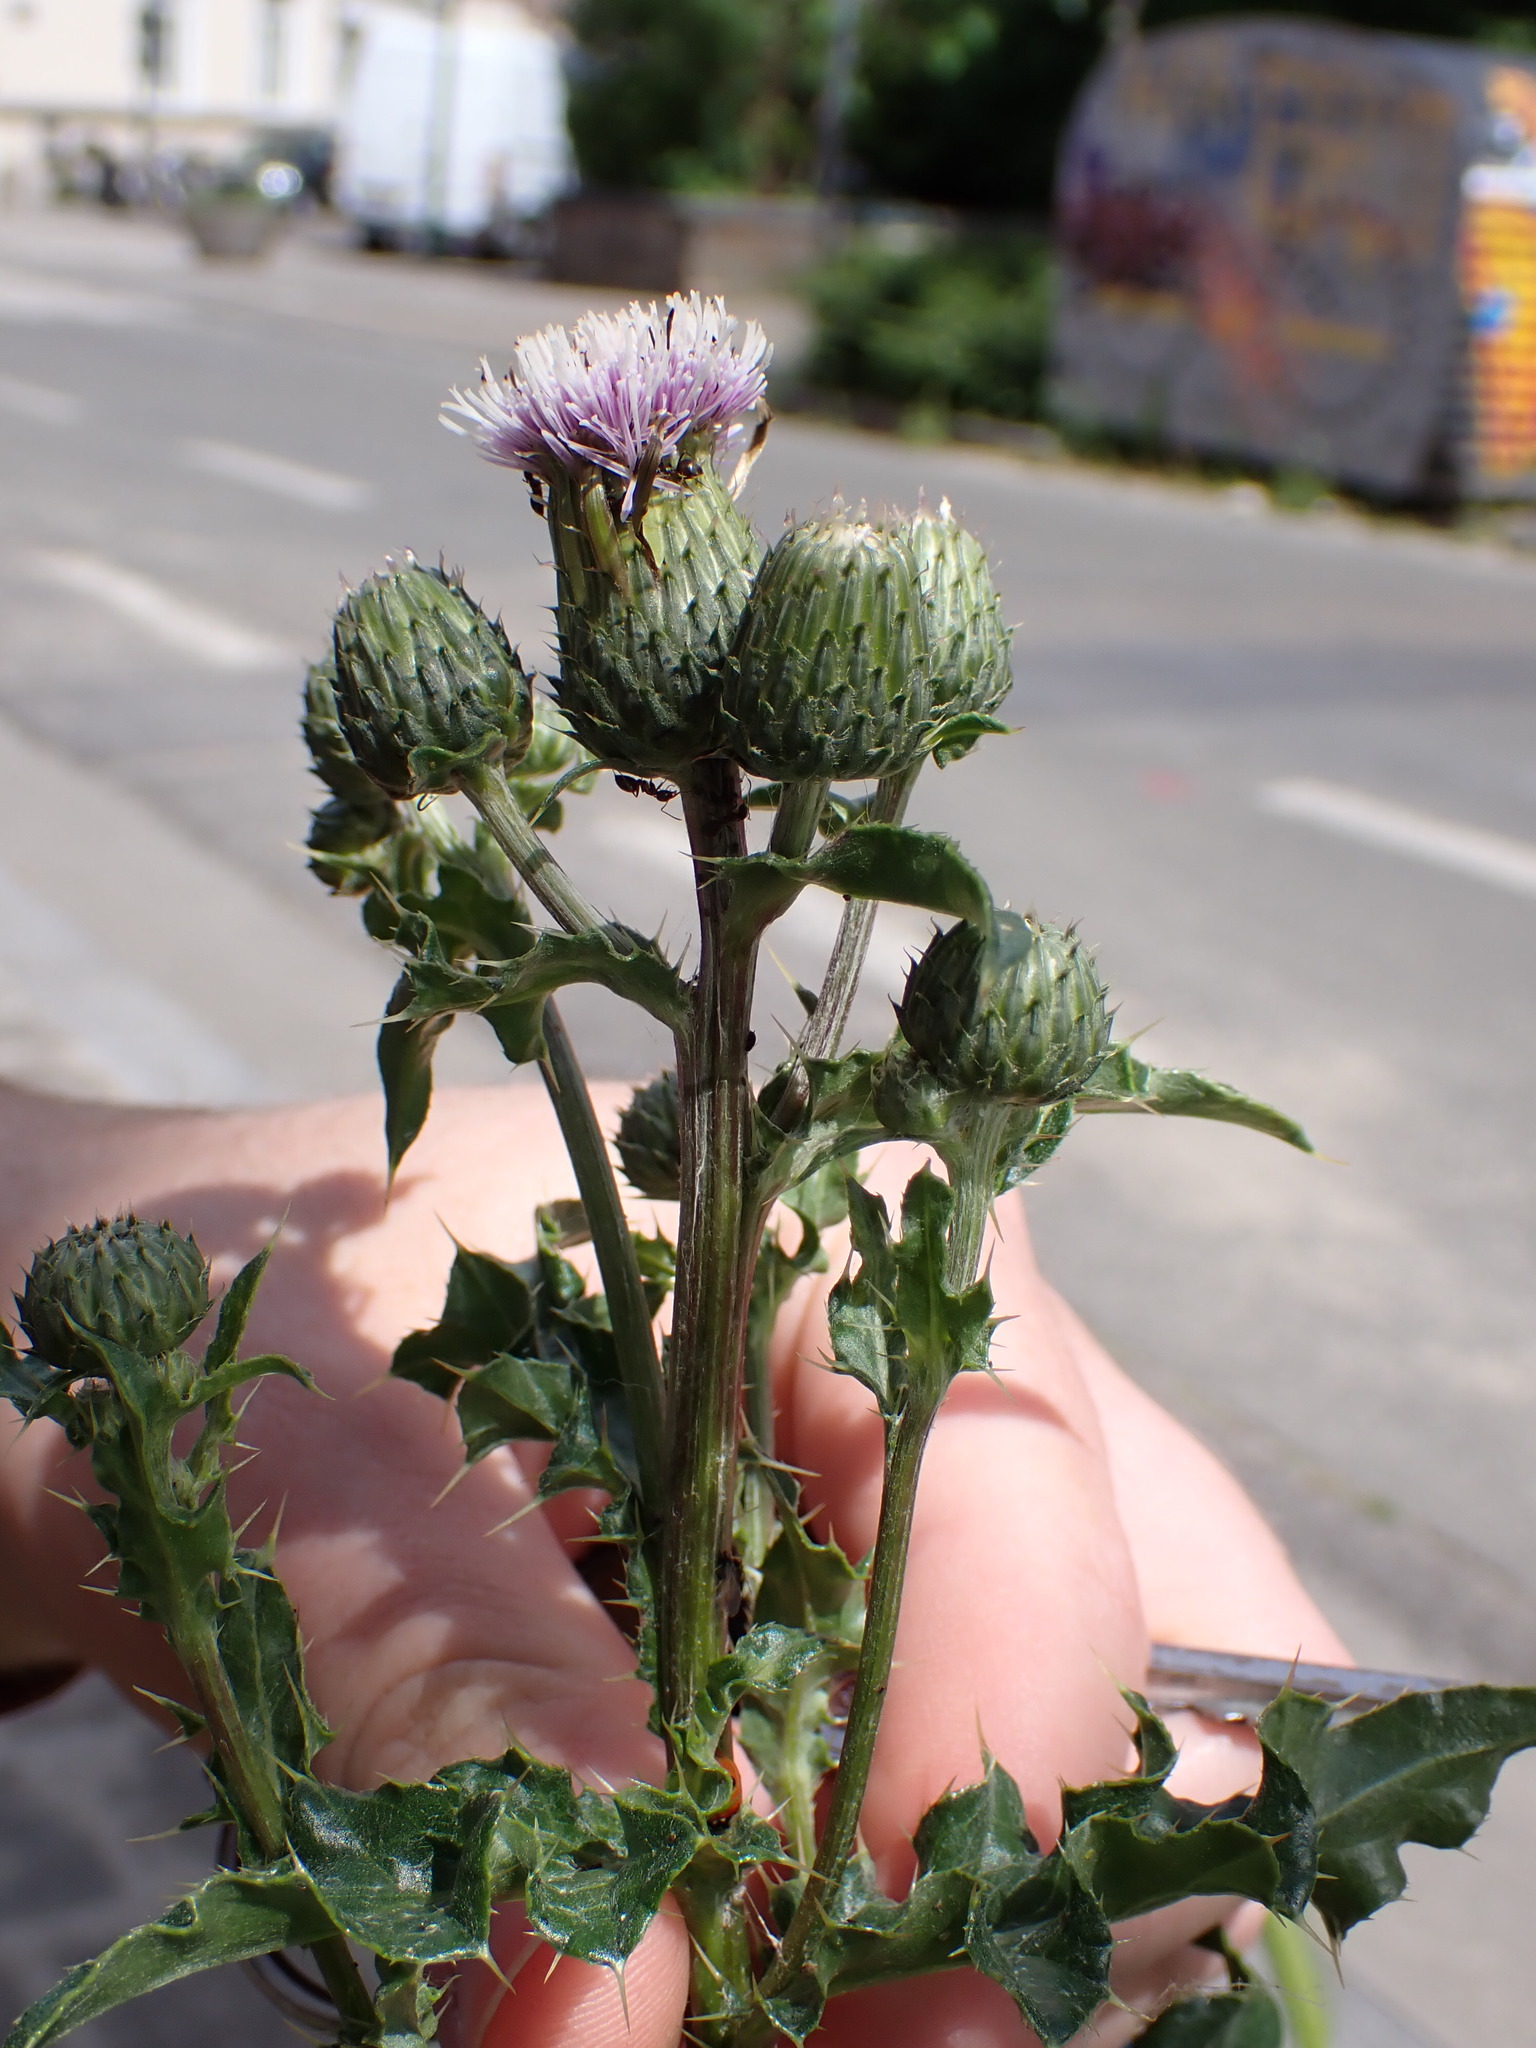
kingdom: Plantae
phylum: Tracheophyta
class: Magnoliopsida
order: Asterales
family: Asteraceae
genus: Cirsium
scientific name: Cirsium arvense
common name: Creeping thistle
